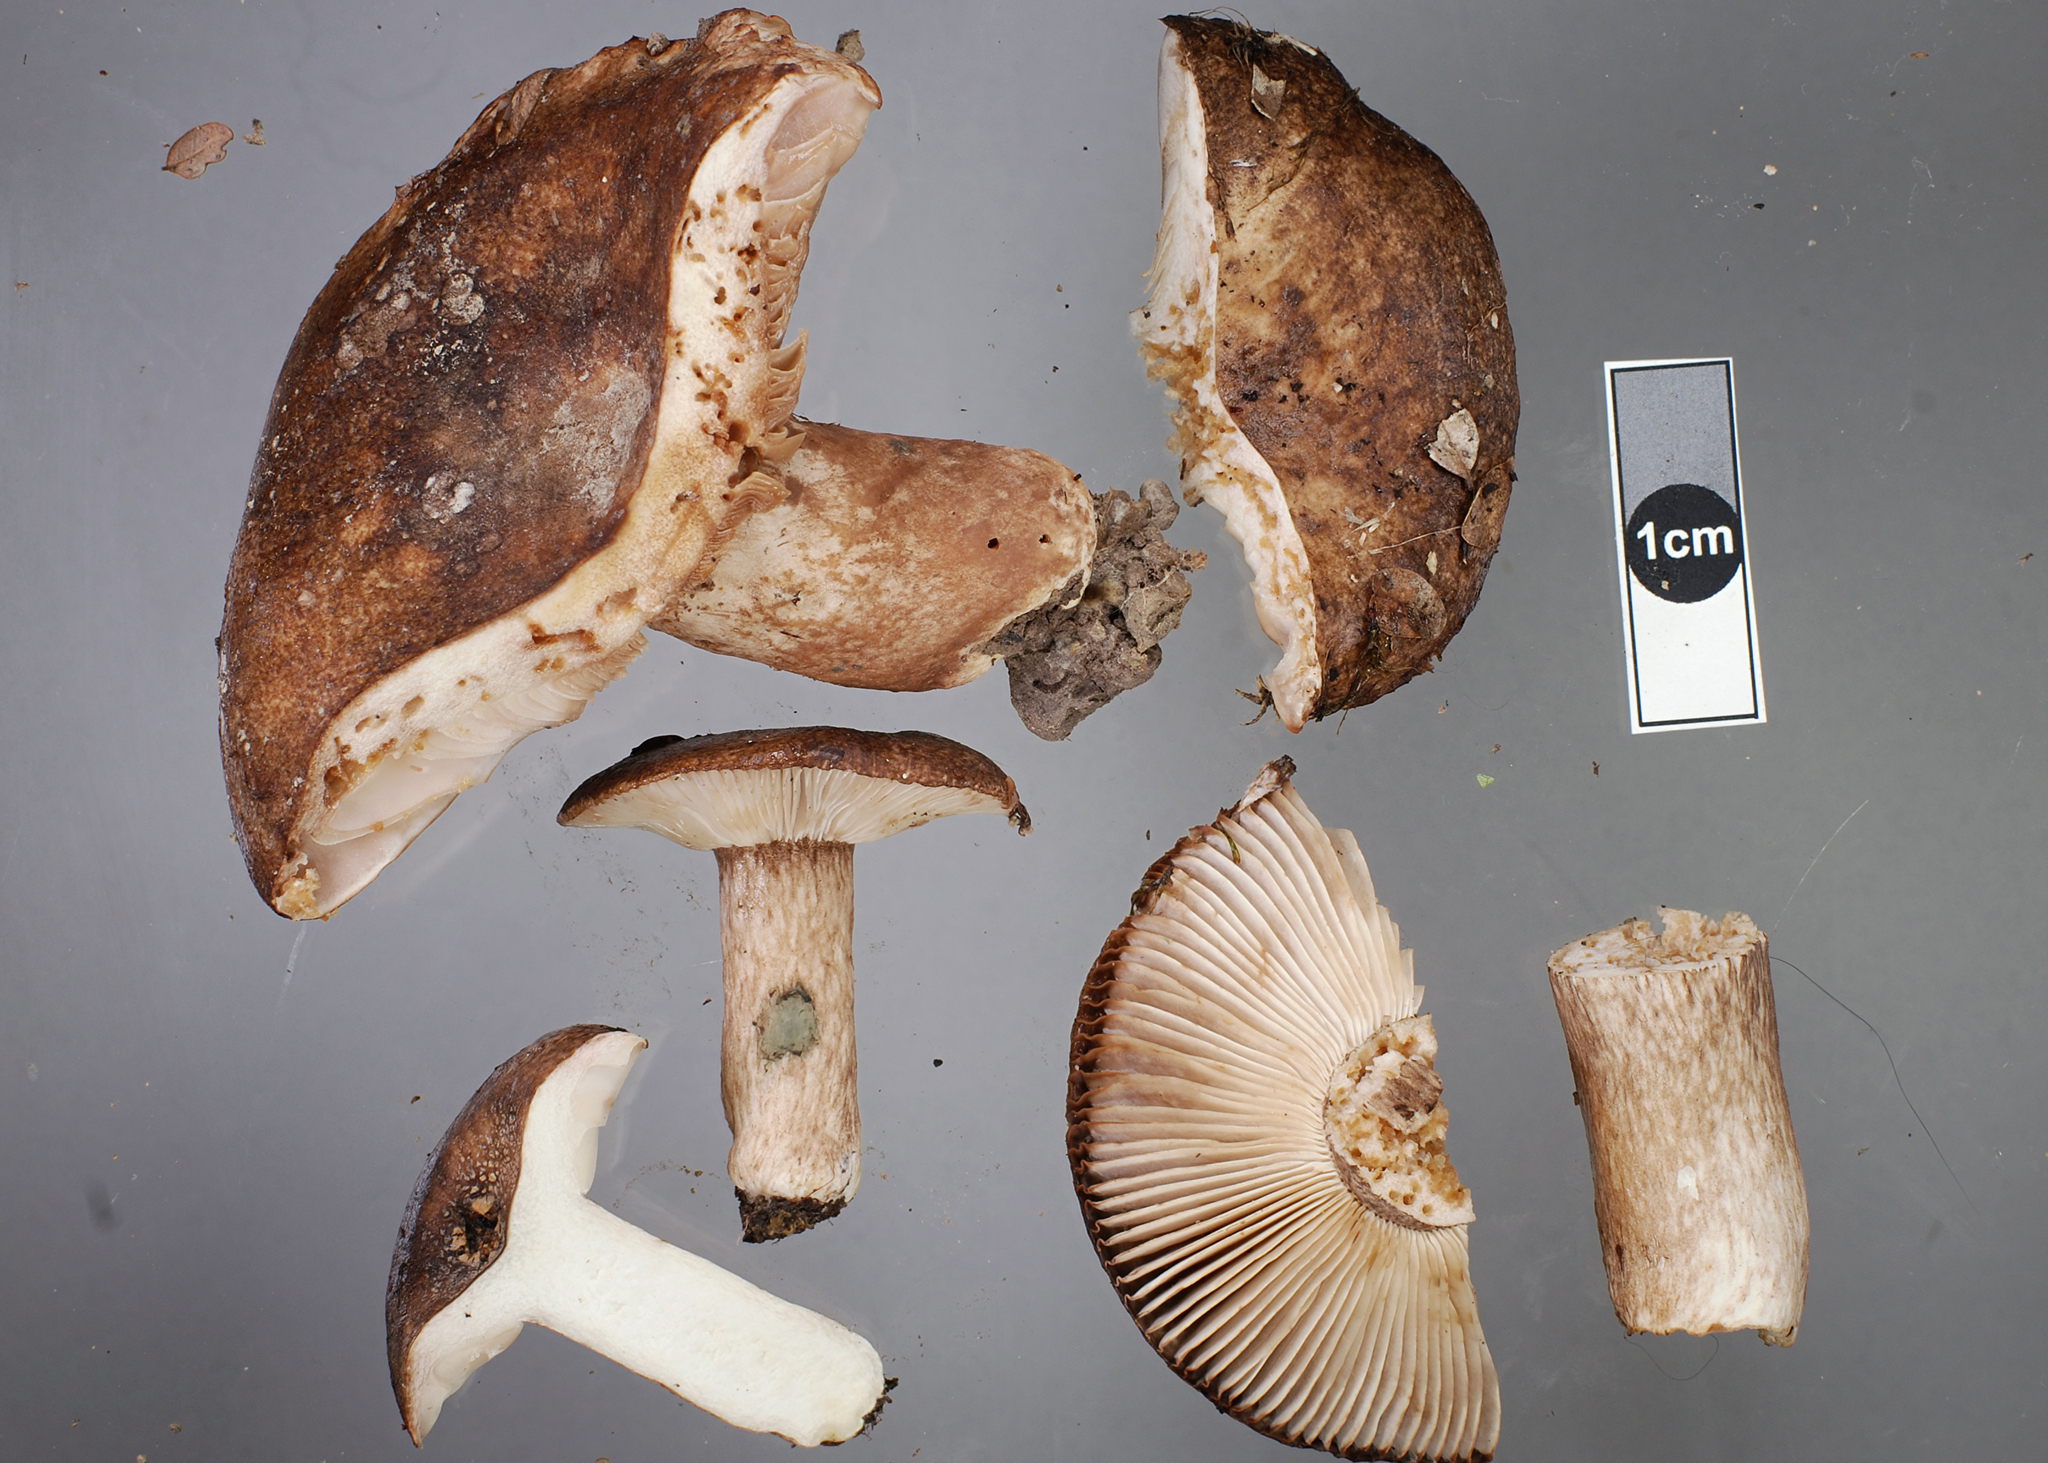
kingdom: Fungi
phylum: Basidiomycota
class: Agaricomycetes
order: Russulales
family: Russulaceae
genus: Russula
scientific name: Russula rimulosa
